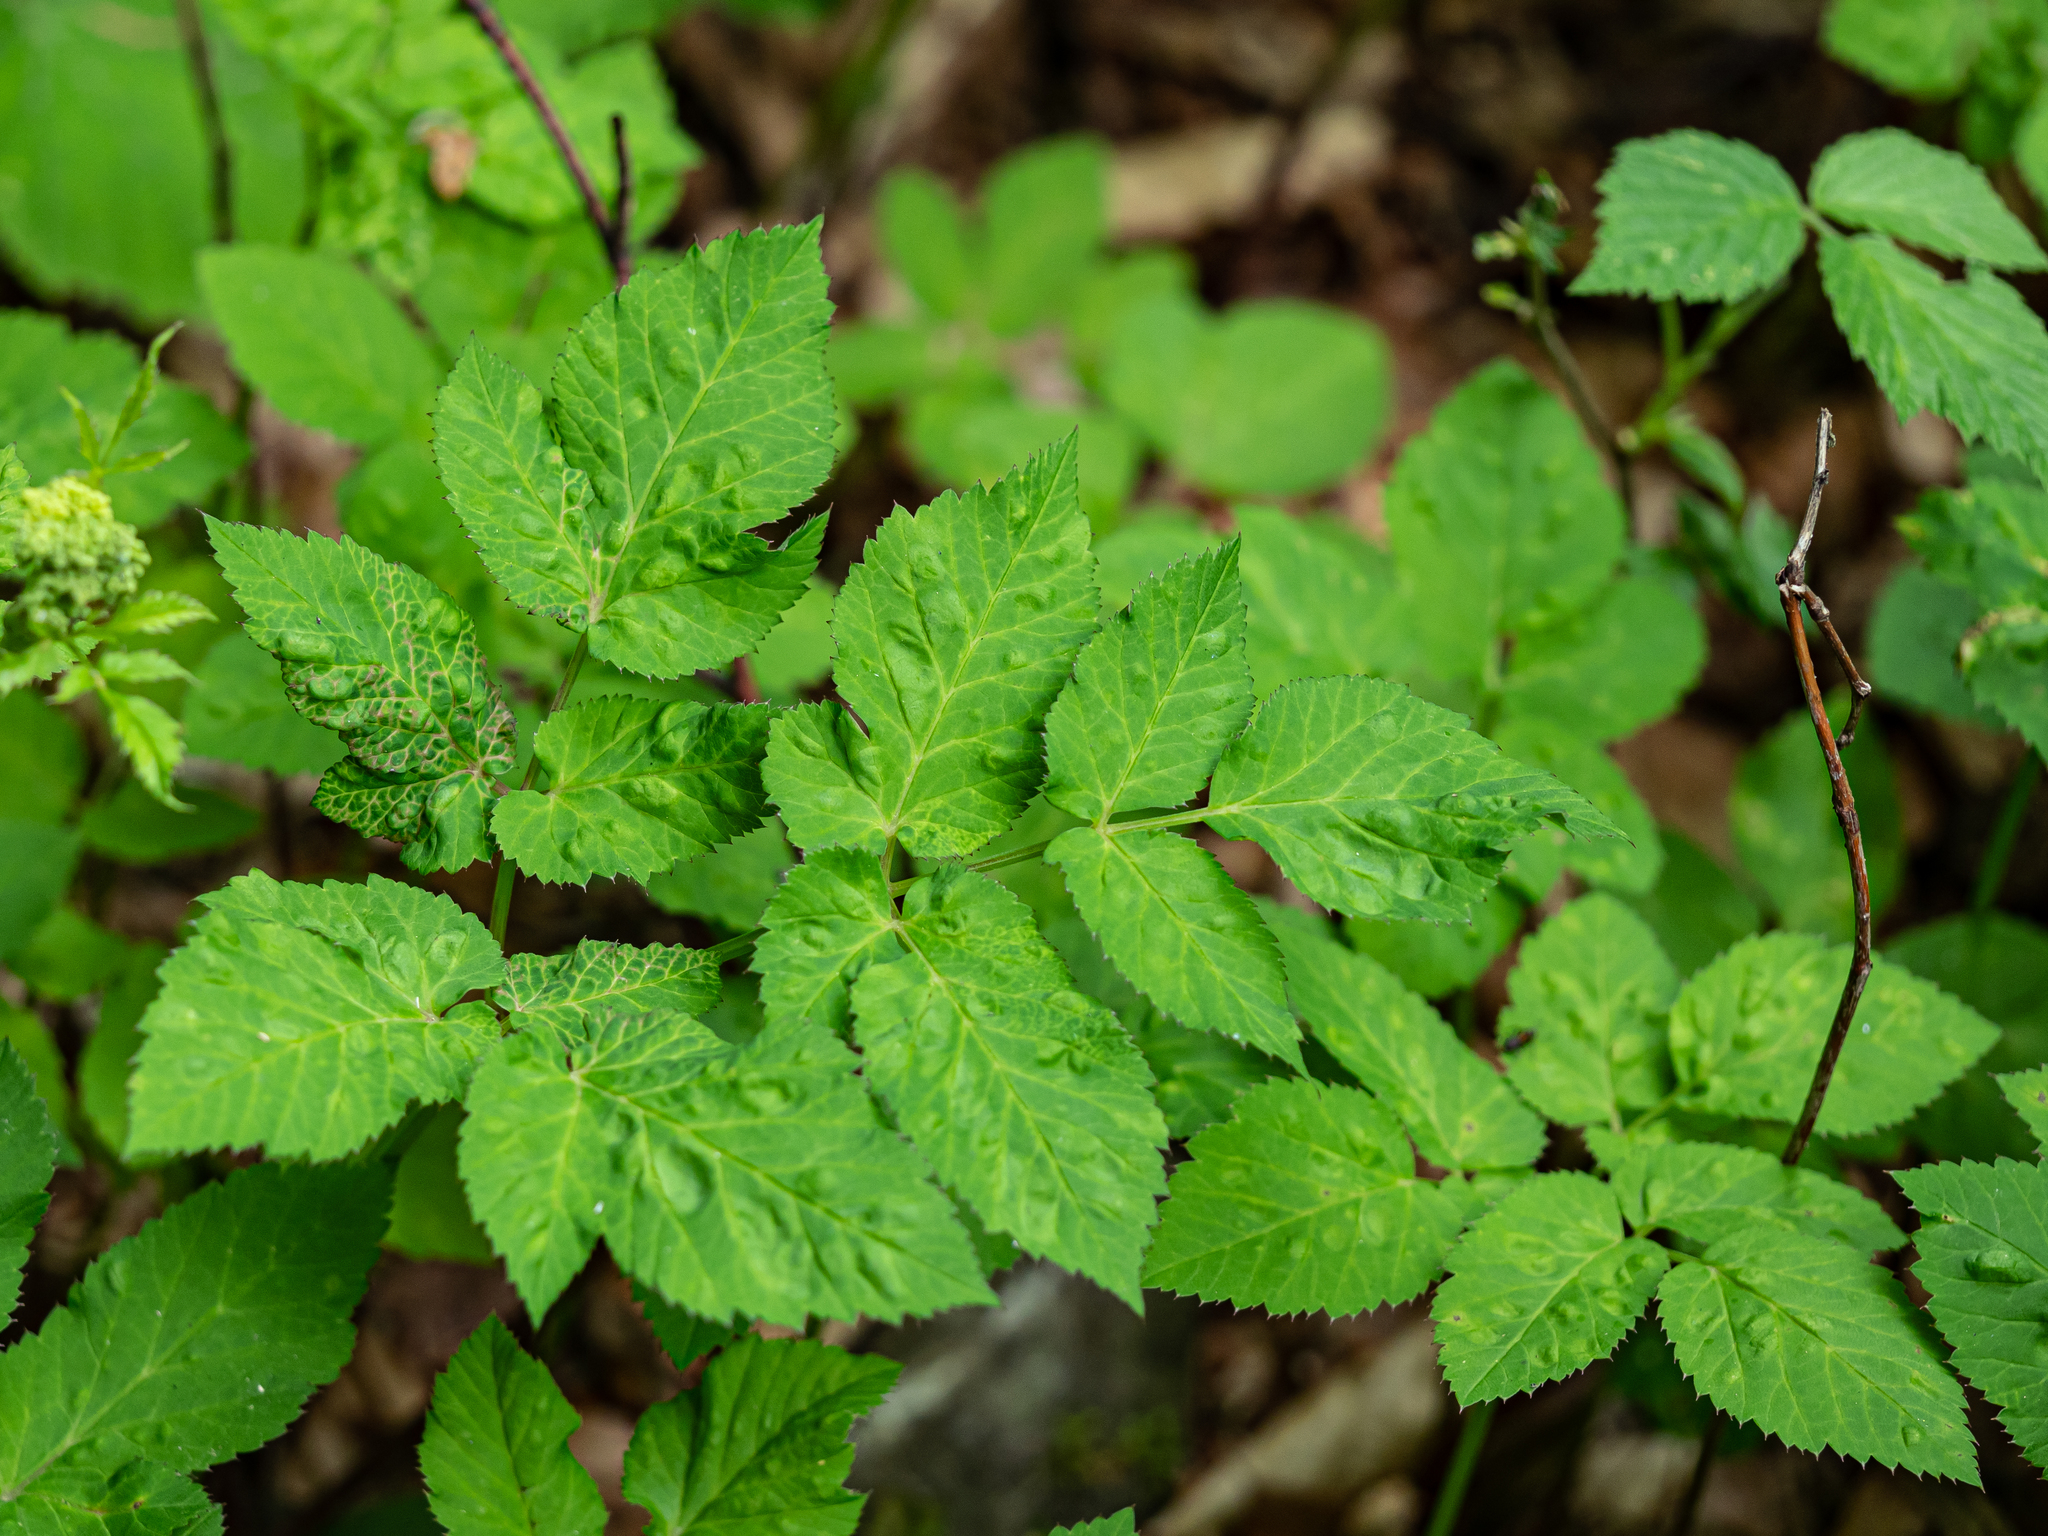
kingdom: Animalia
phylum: Arthropoda
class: Insecta
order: Hemiptera
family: Triozidae
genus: Trioza
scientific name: Trioza flavipennis
